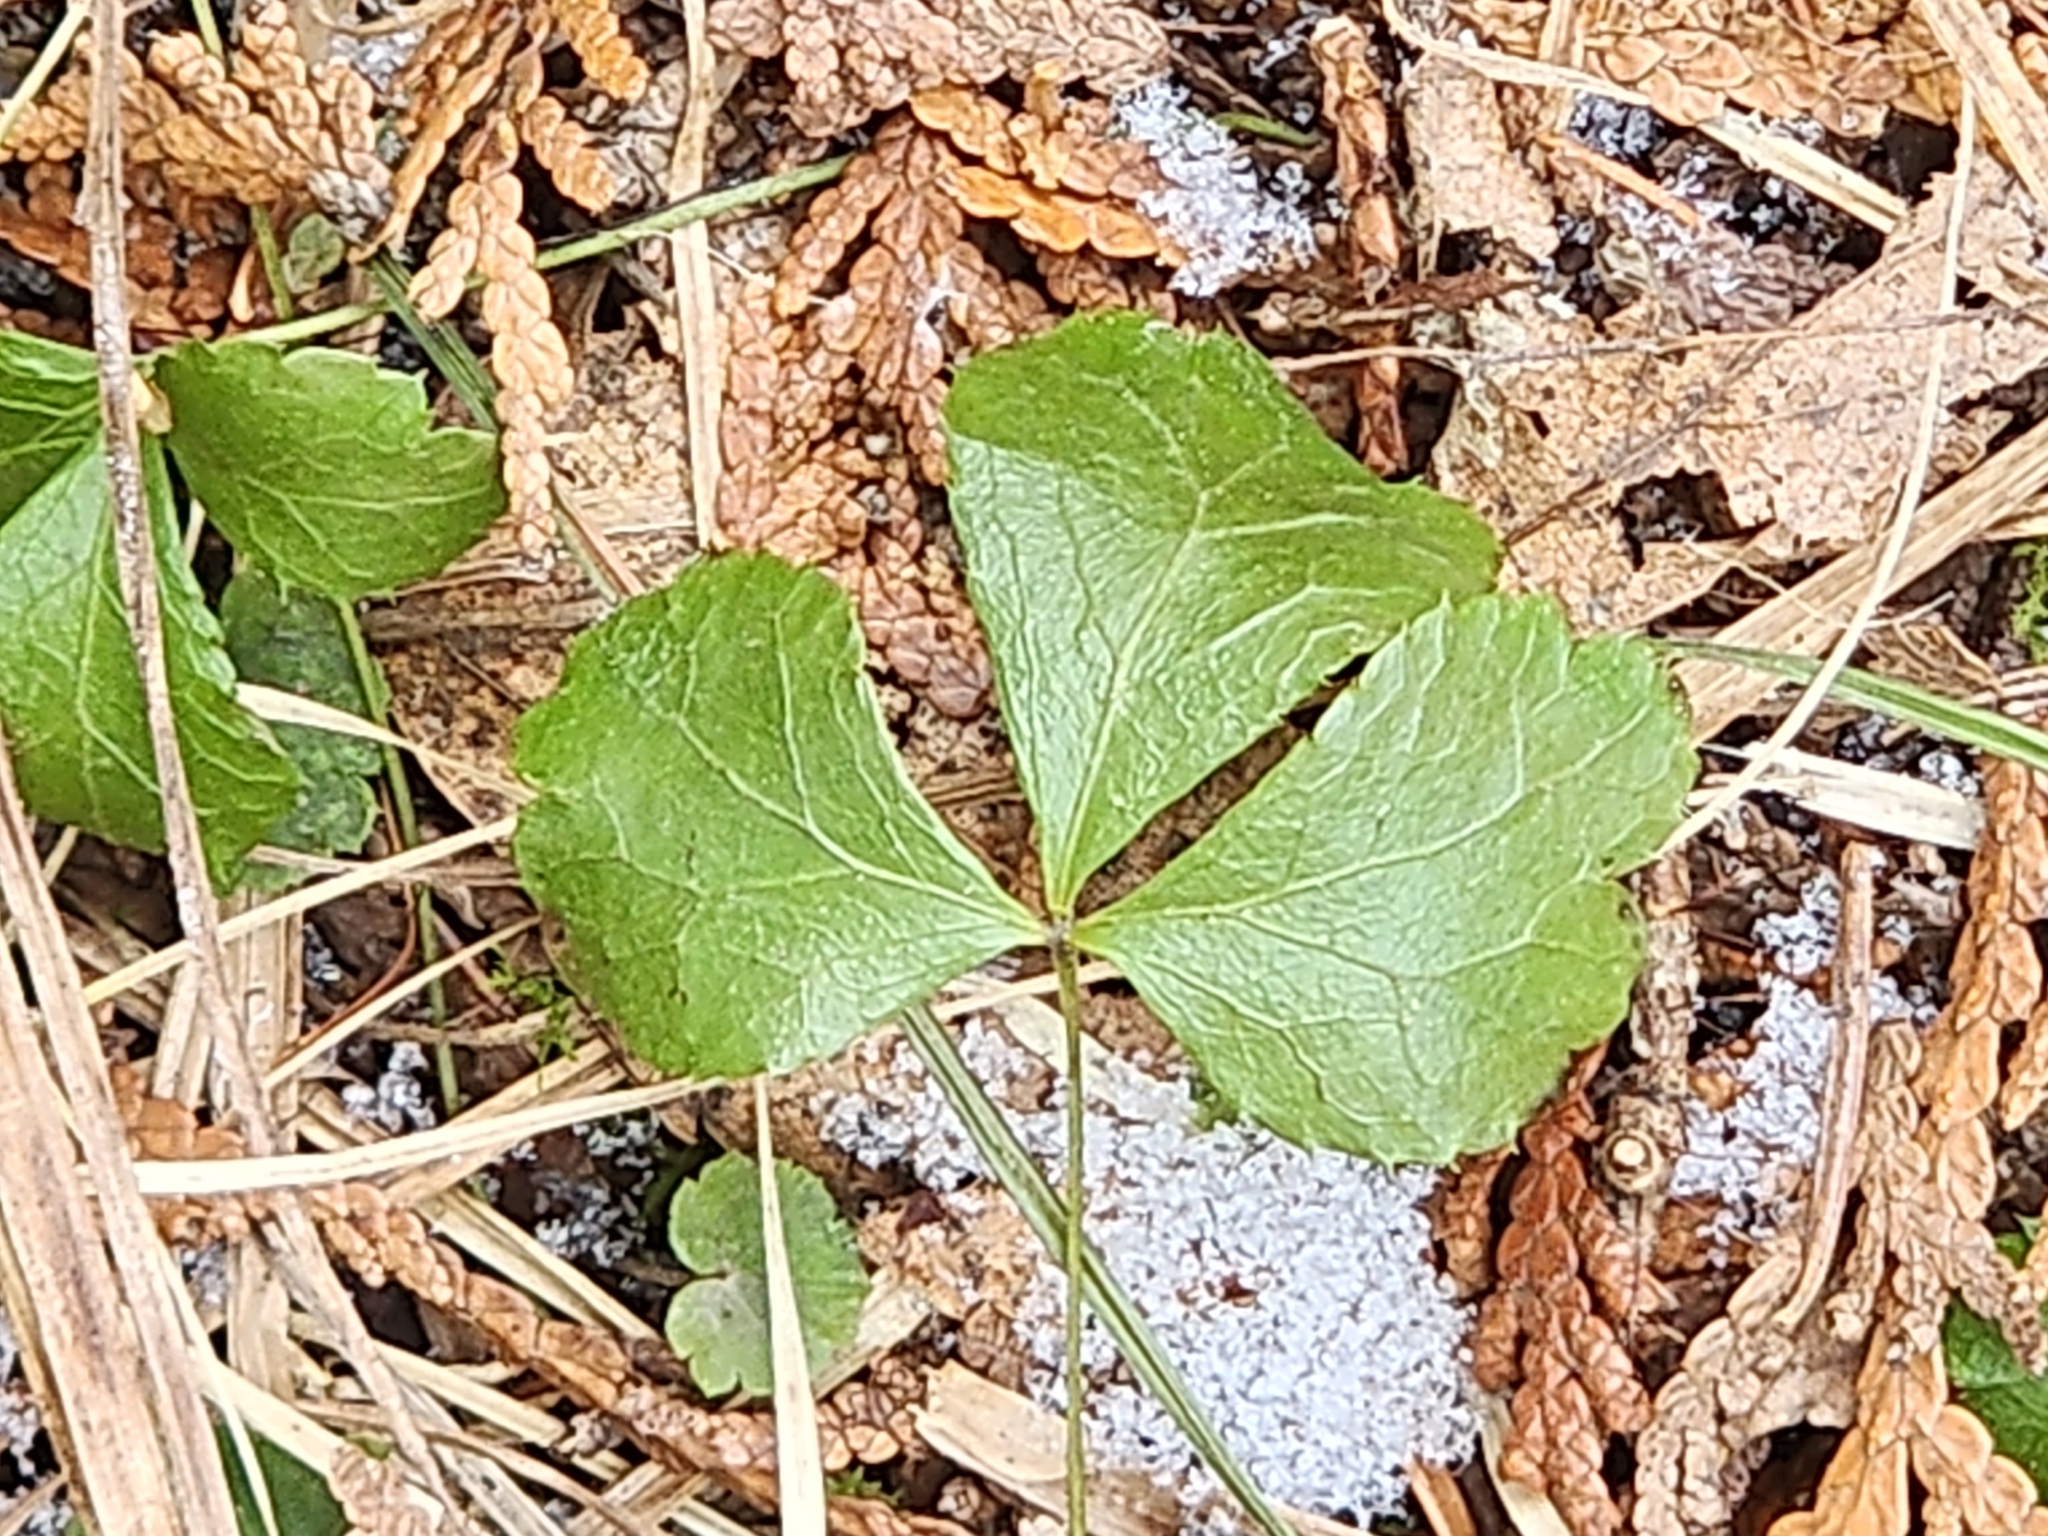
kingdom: Plantae
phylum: Tracheophyta
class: Magnoliopsida
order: Ranunculales
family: Ranunculaceae
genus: Coptis
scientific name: Coptis trifolia
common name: Canker-root
